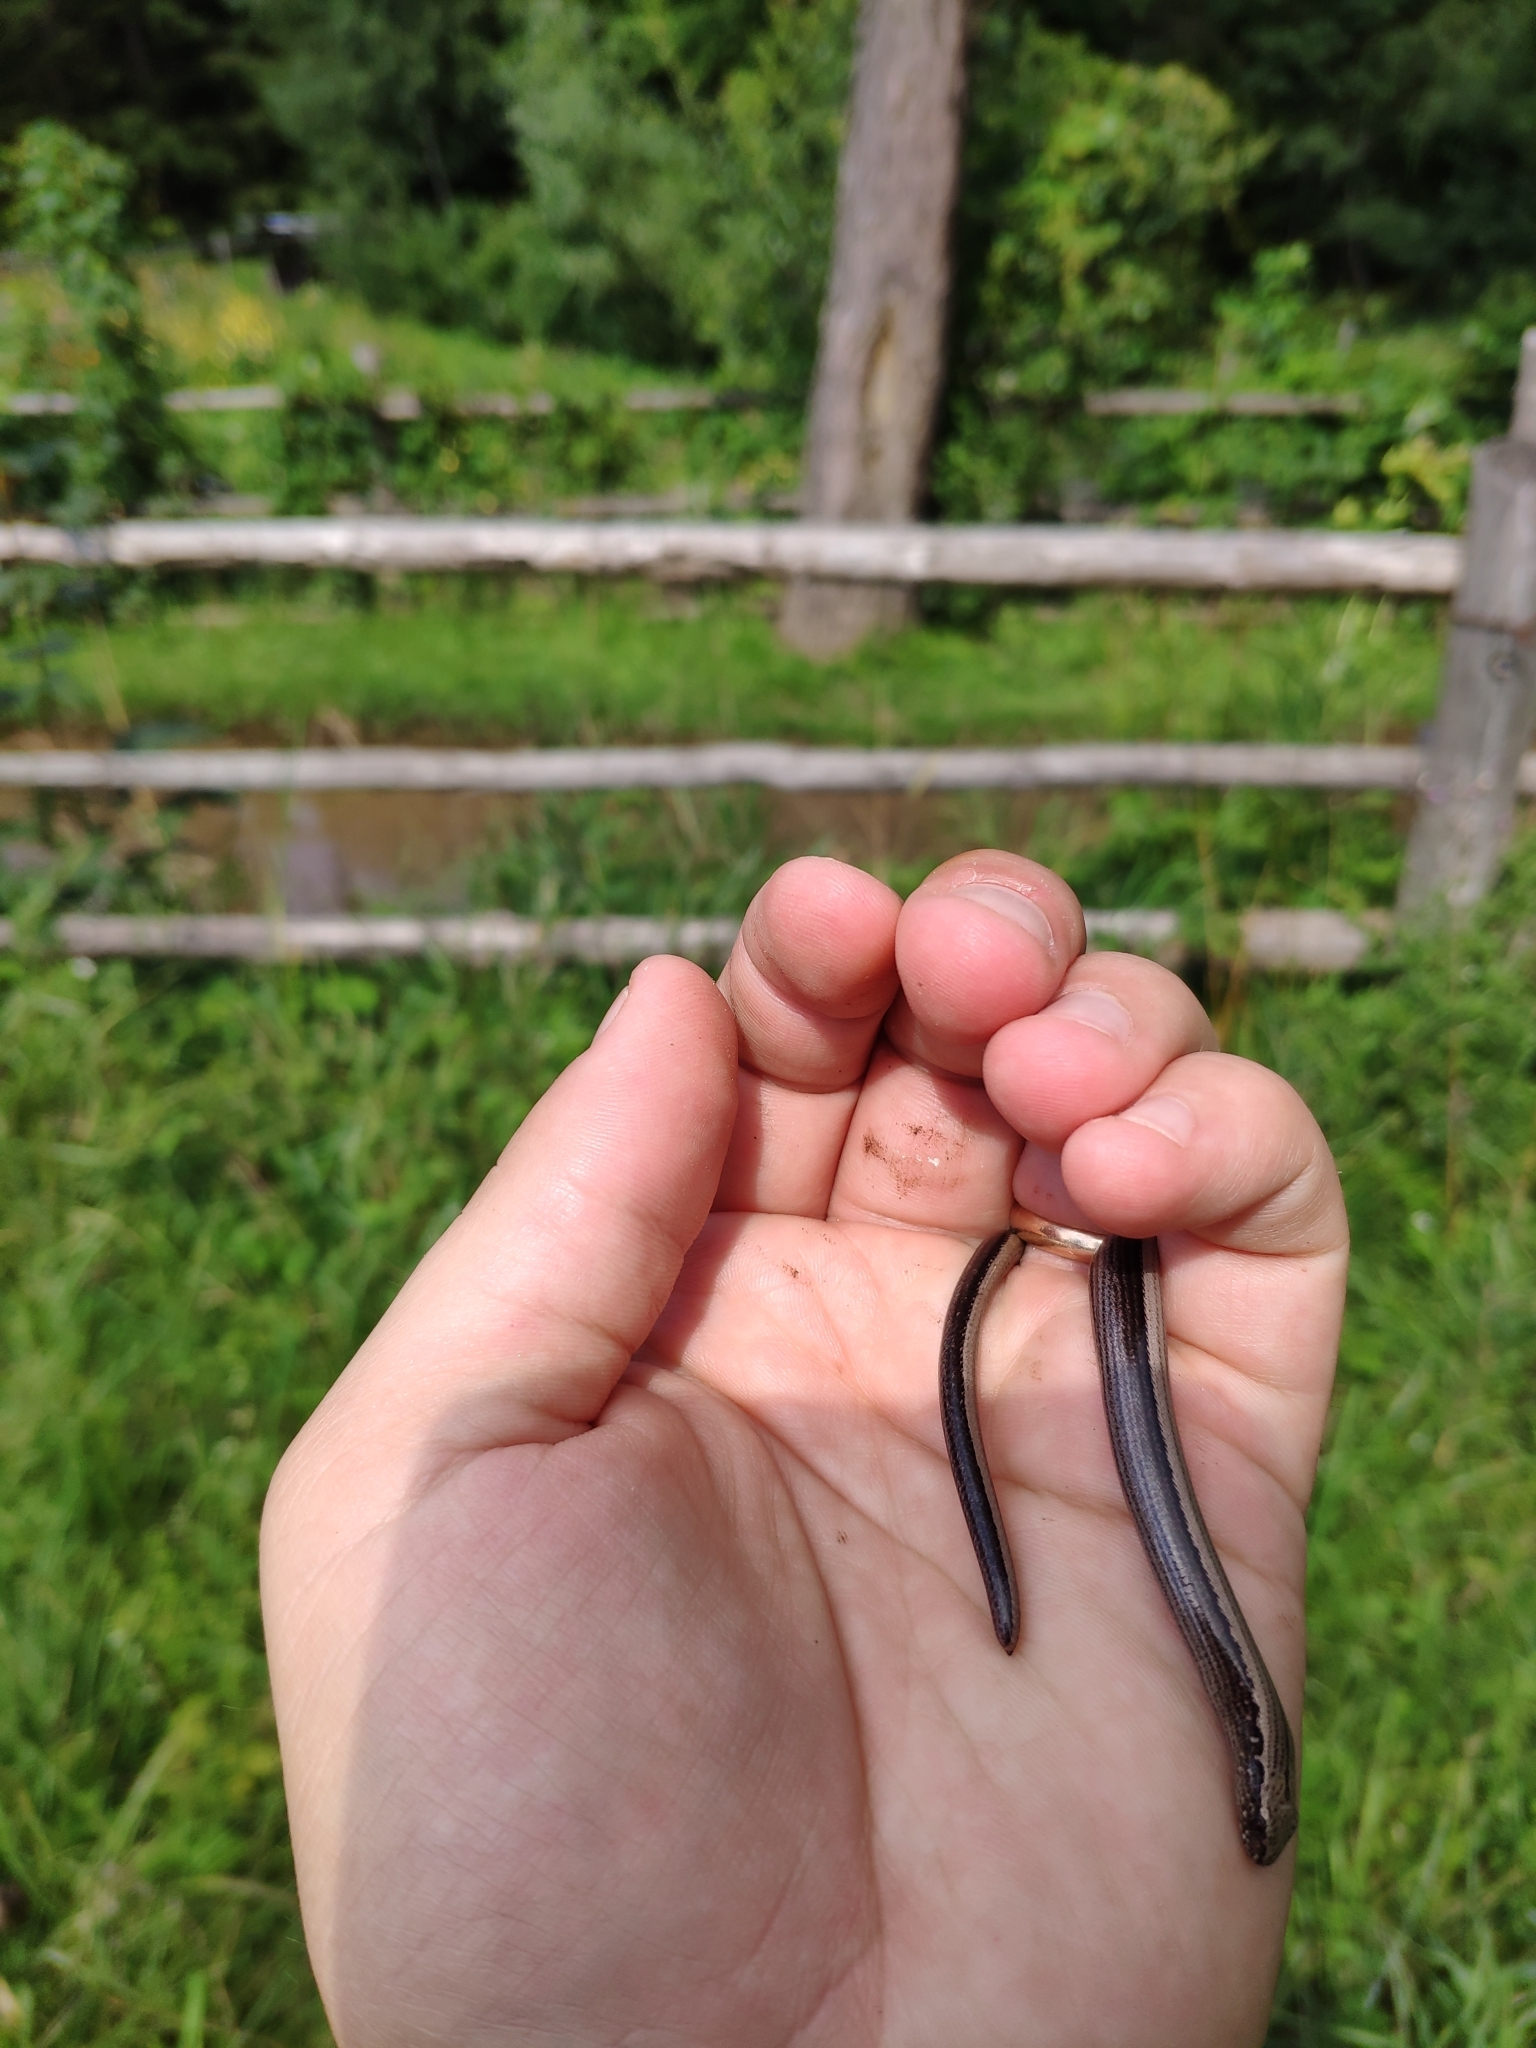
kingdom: Animalia
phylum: Chordata
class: Squamata
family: Anguidae
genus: Anguis
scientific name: Anguis veronensis
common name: Italian slow worm
